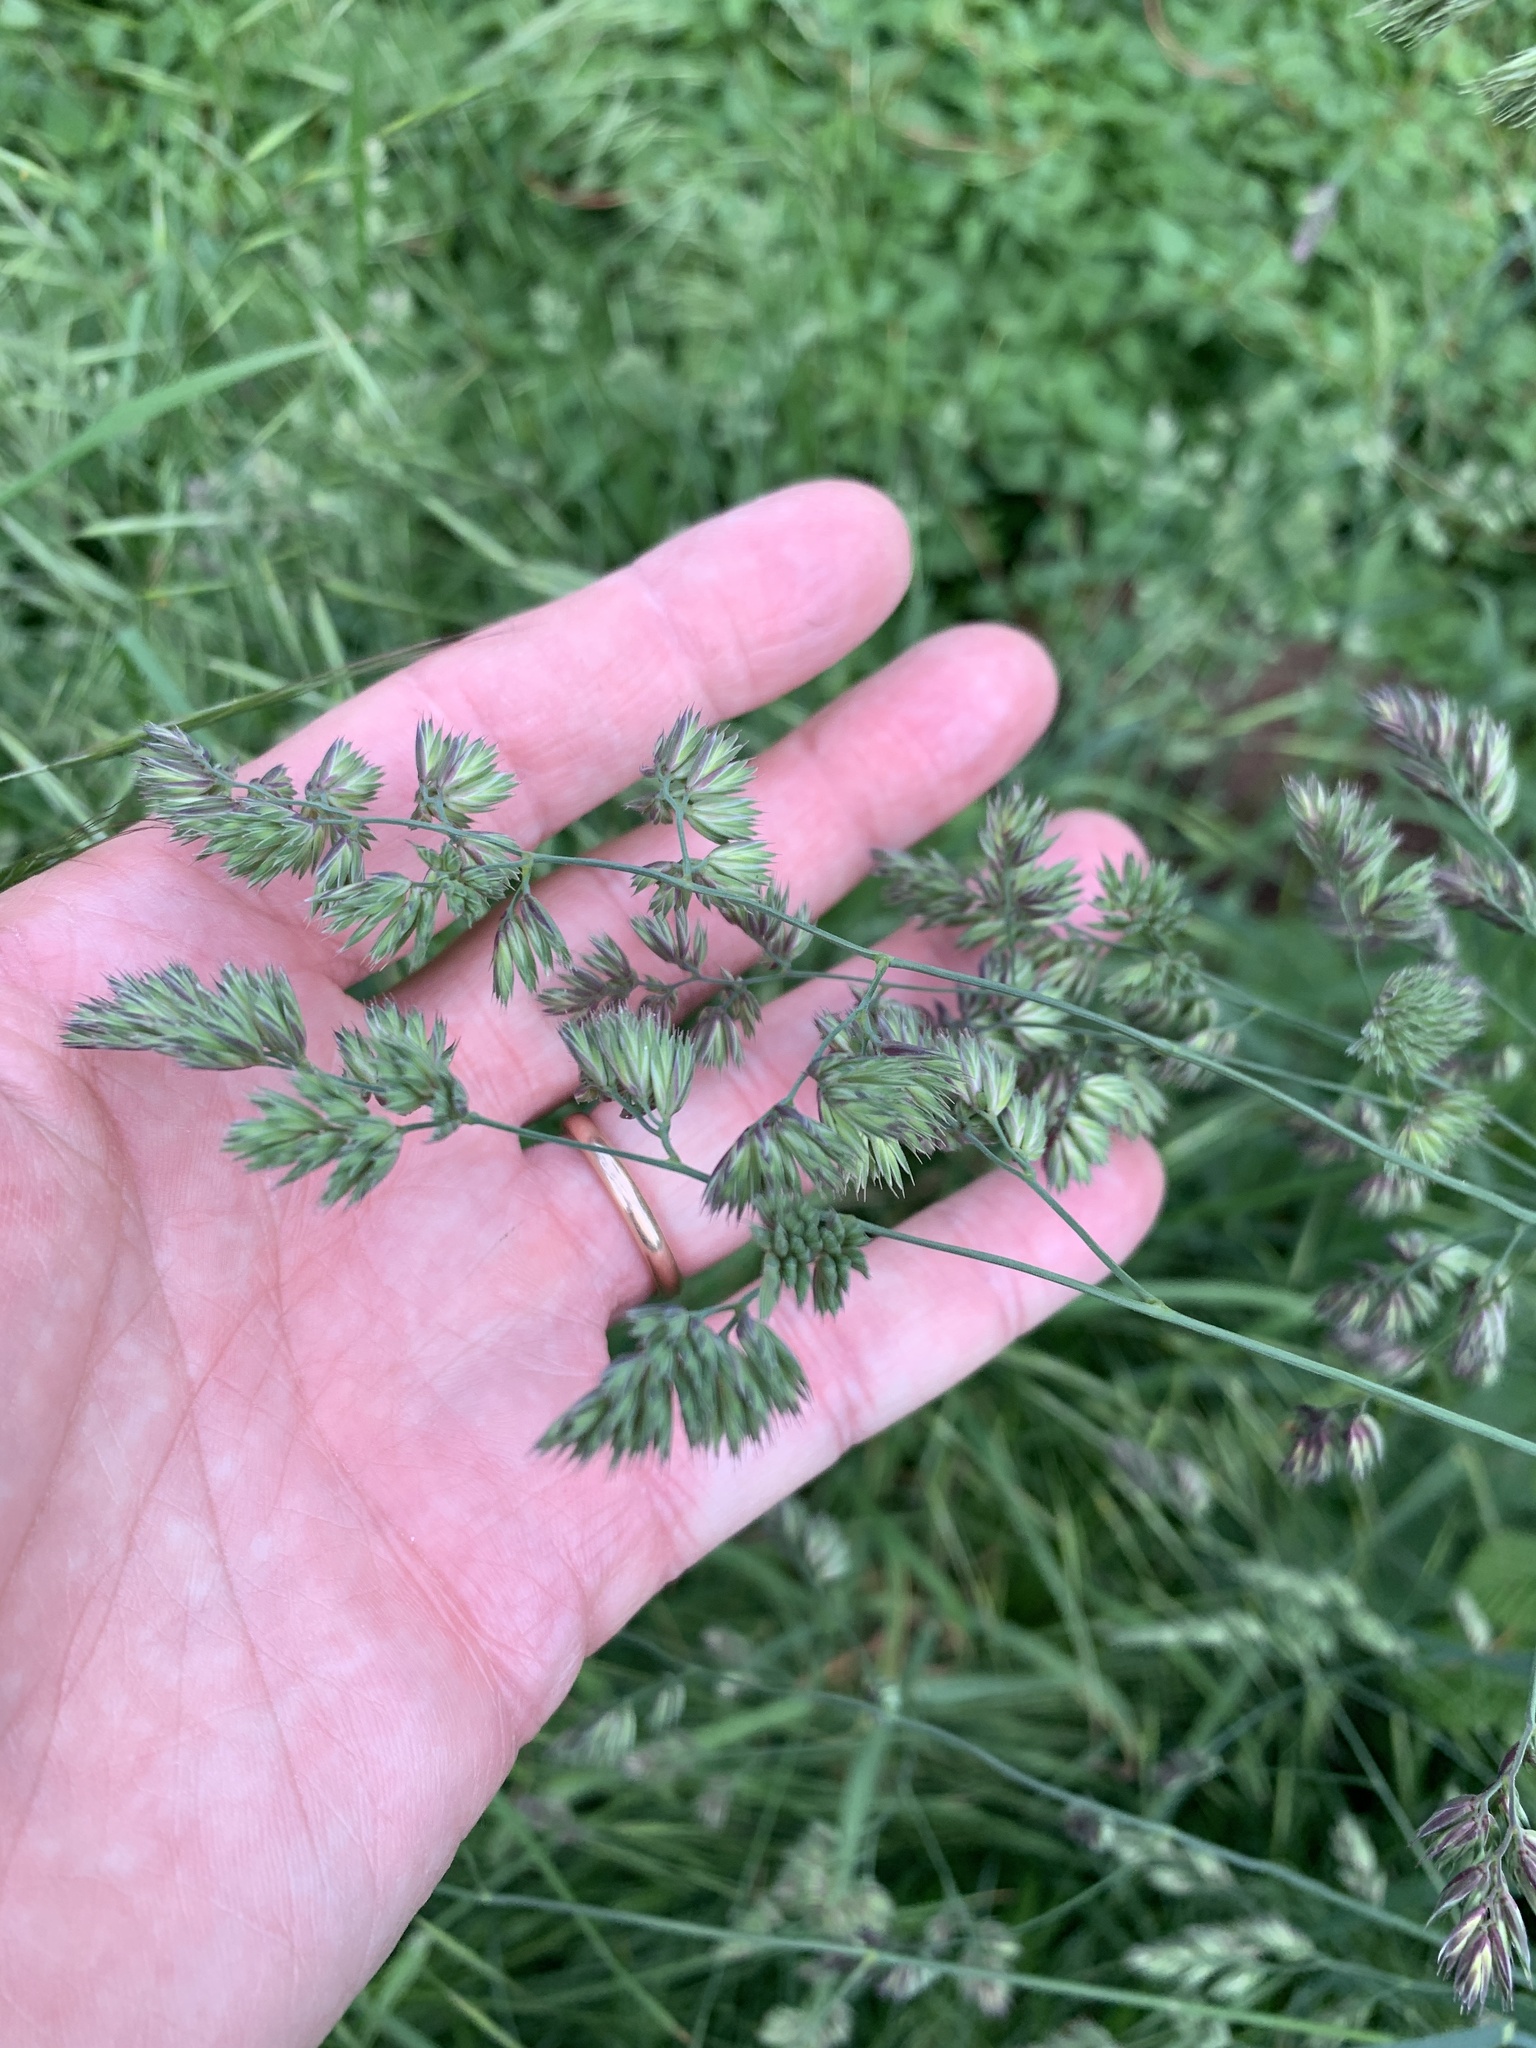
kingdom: Plantae
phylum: Tracheophyta
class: Liliopsida
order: Poales
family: Poaceae
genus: Dactylis
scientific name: Dactylis glomerata
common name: Orchardgrass
